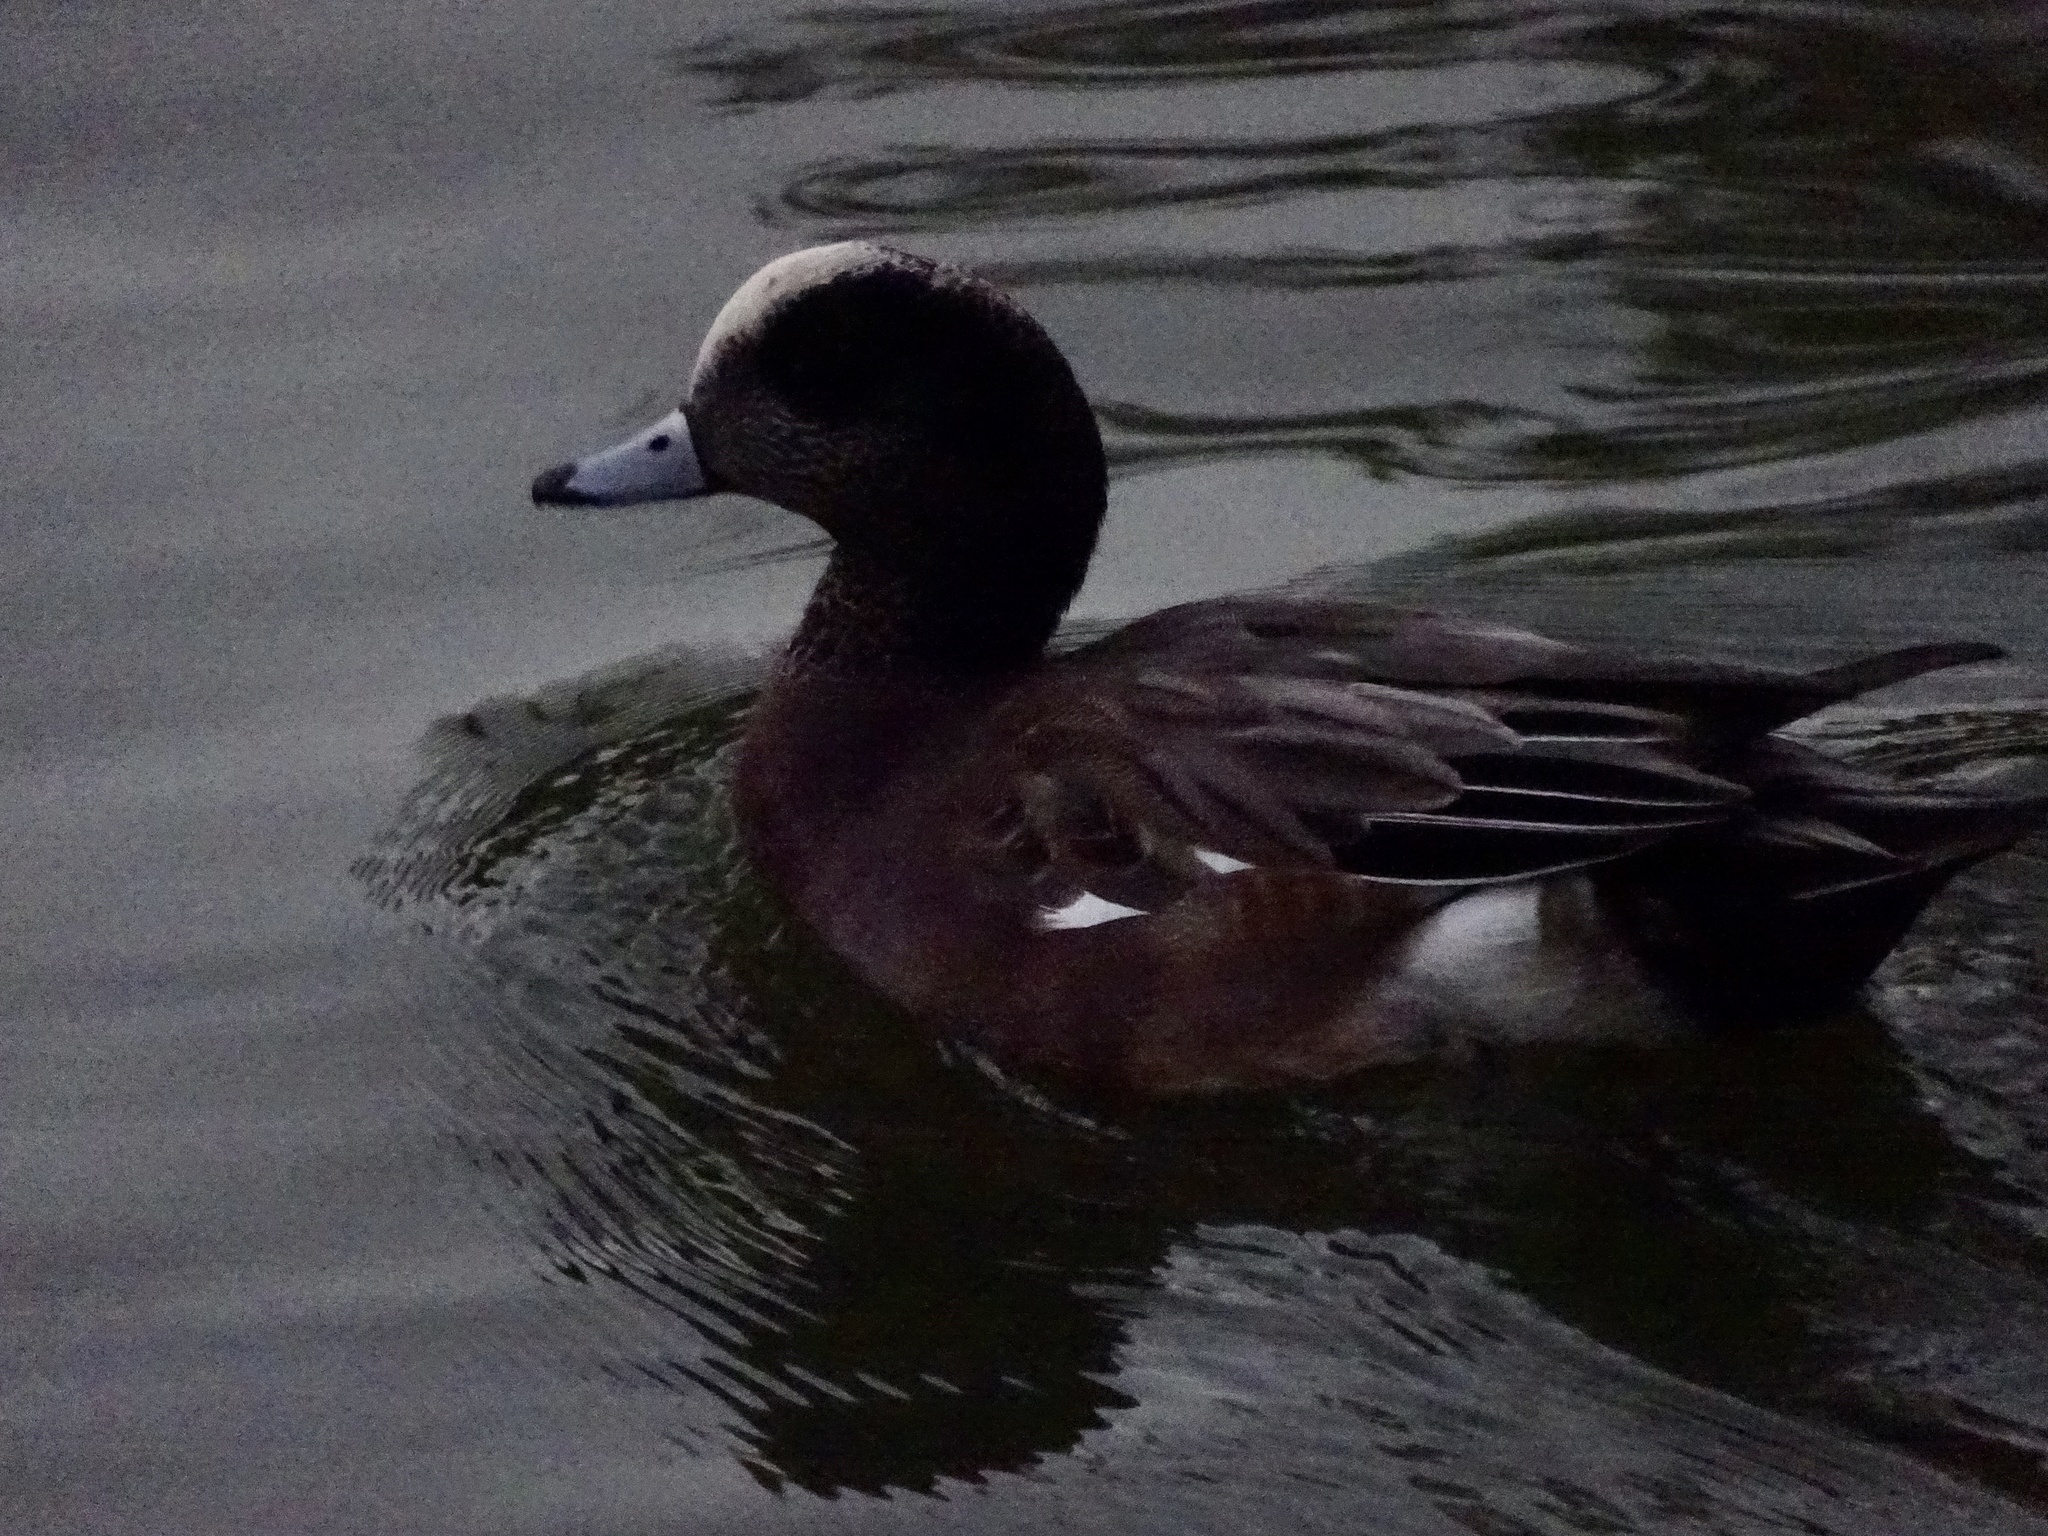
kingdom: Animalia
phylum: Chordata
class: Aves
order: Anseriformes
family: Anatidae
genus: Mareca
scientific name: Mareca americana
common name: American wigeon
